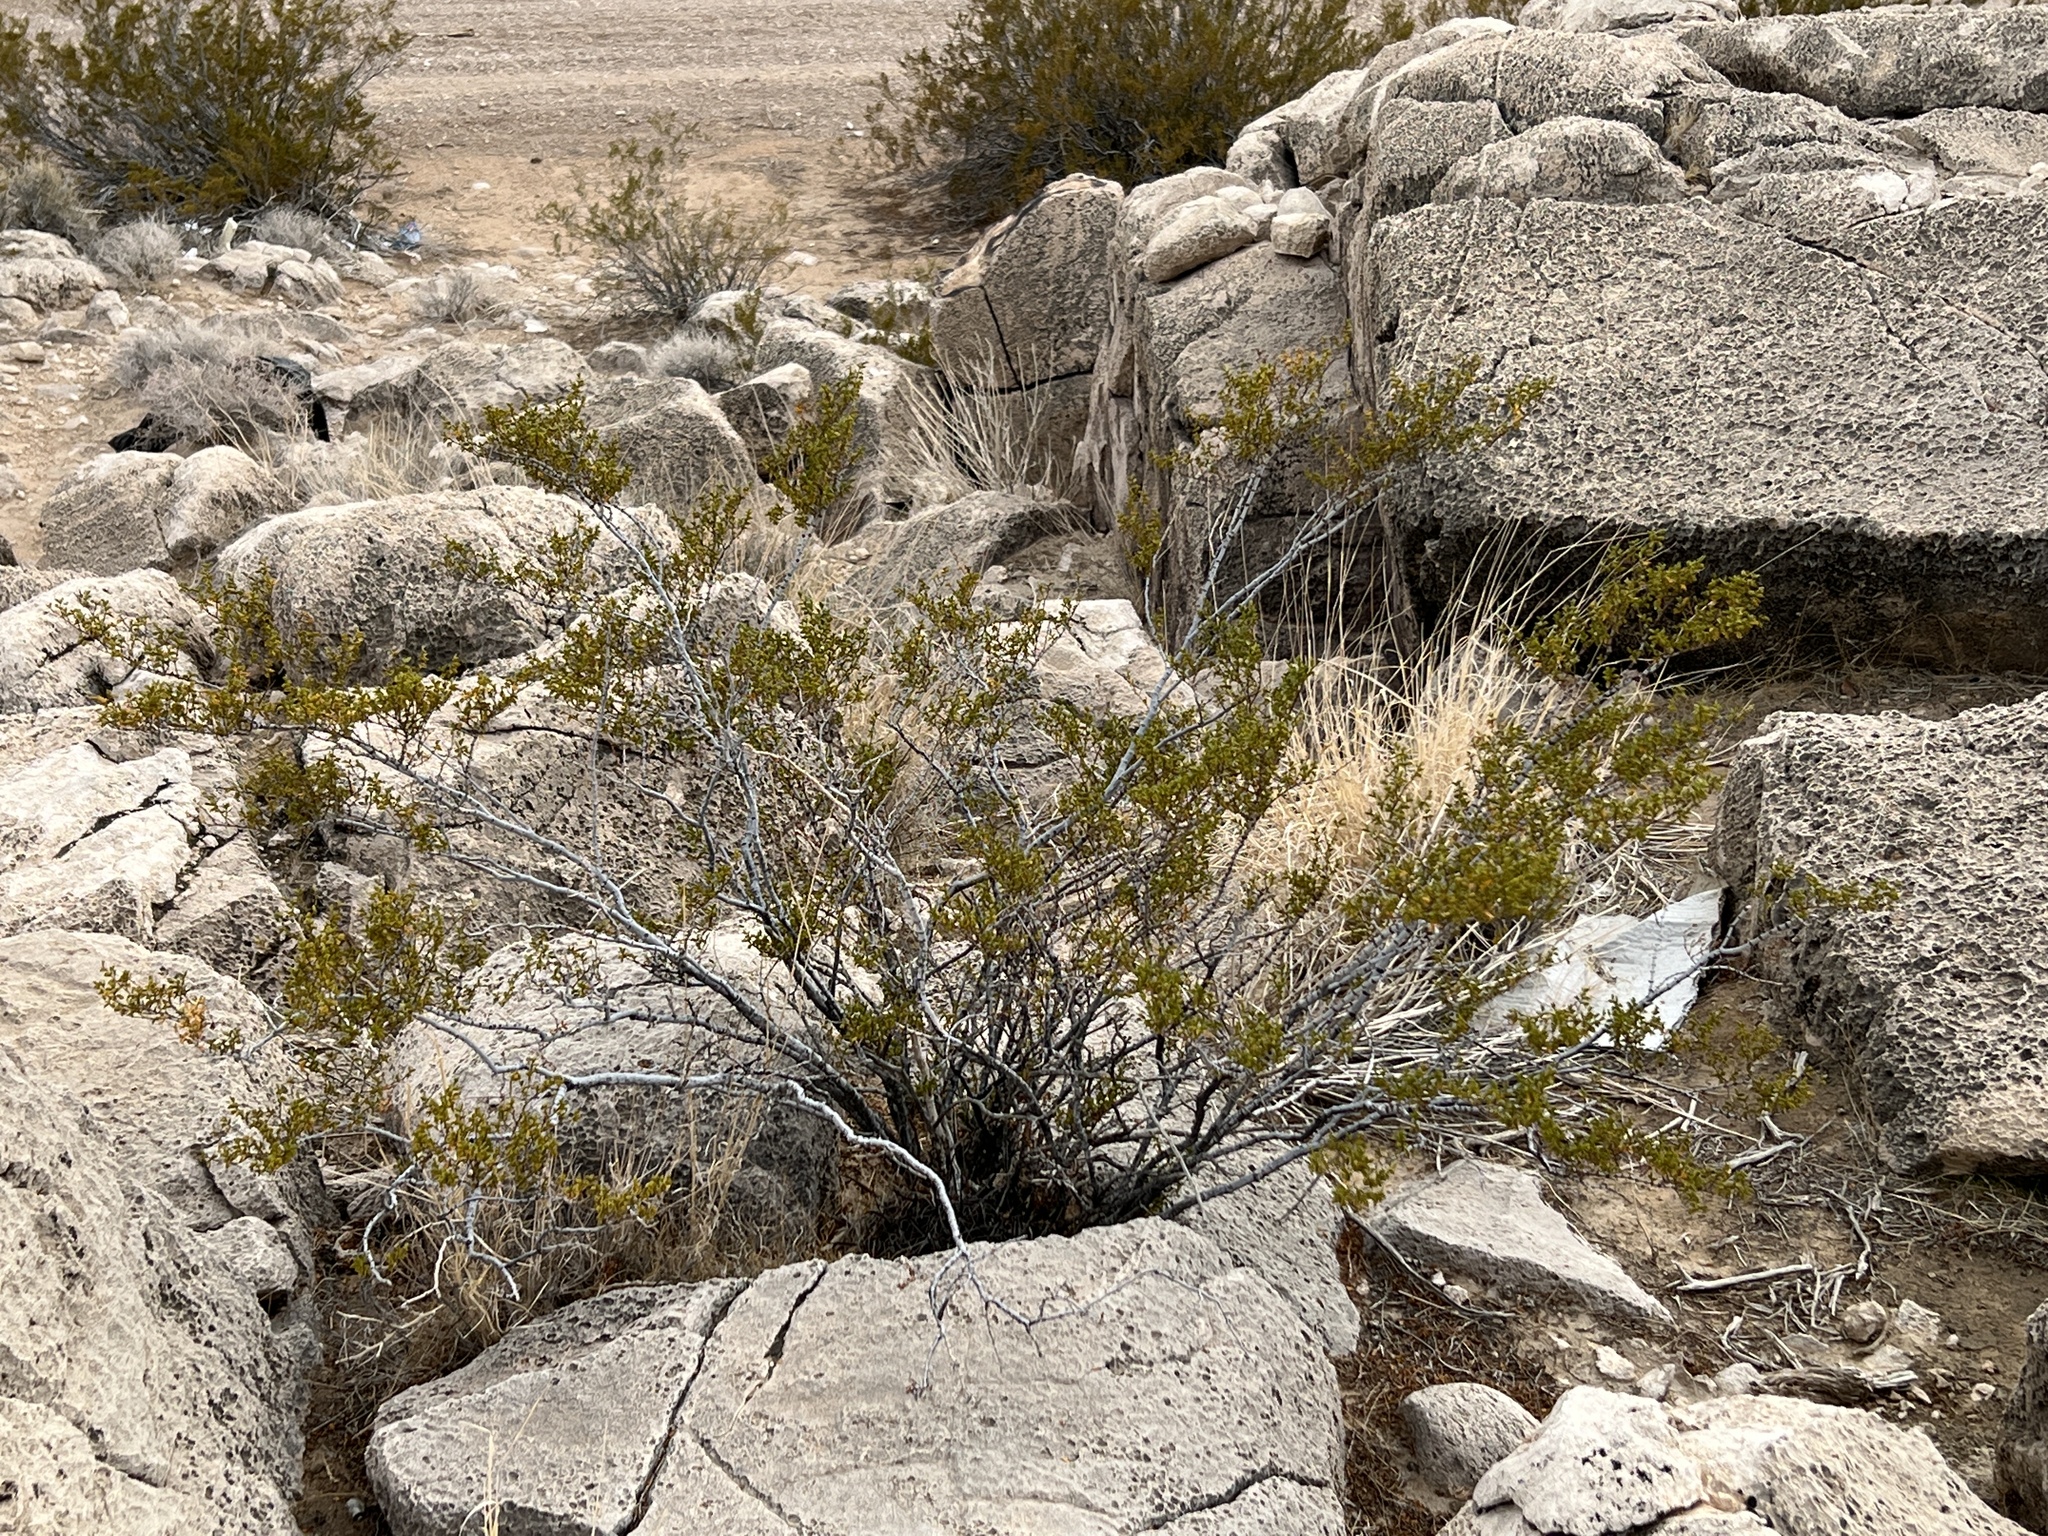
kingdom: Plantae
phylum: Tracheophyta
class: Magnoliopsida
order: Zygophyllales
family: Zygophyllaceae
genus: Larrea
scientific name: Larrea tridentata
